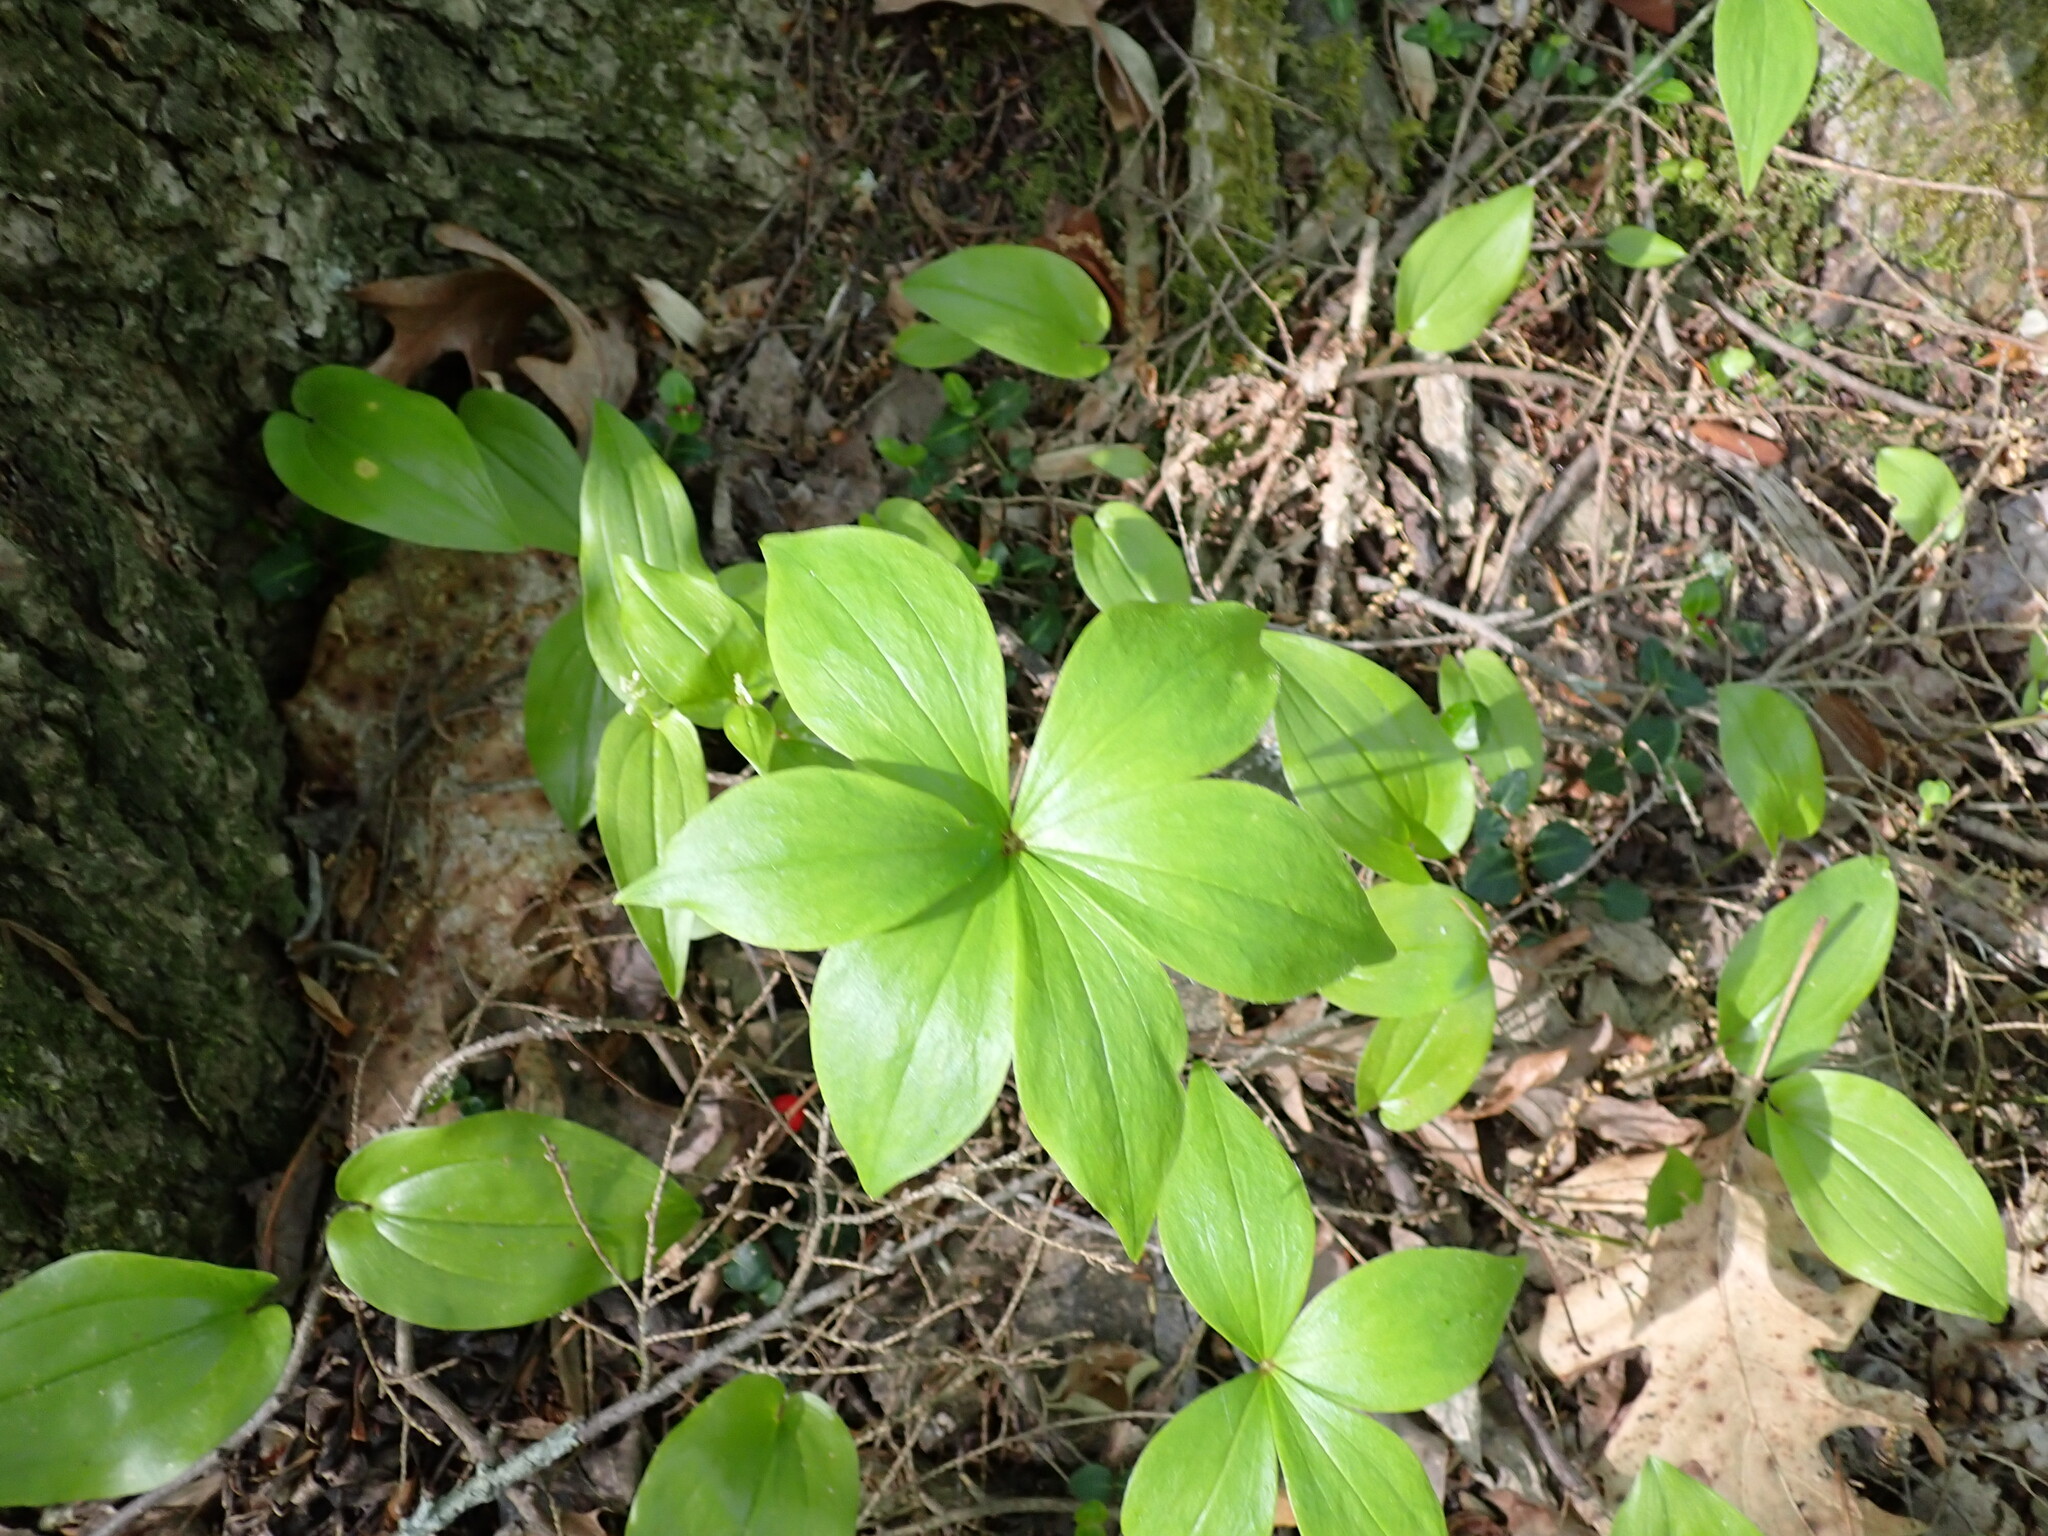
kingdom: Plantae
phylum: Tracheophyta
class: Liliopsida
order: Liliales
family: Liliaceae
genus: Medeola
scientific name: Medeola virginiana
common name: Indian cucumber-root
